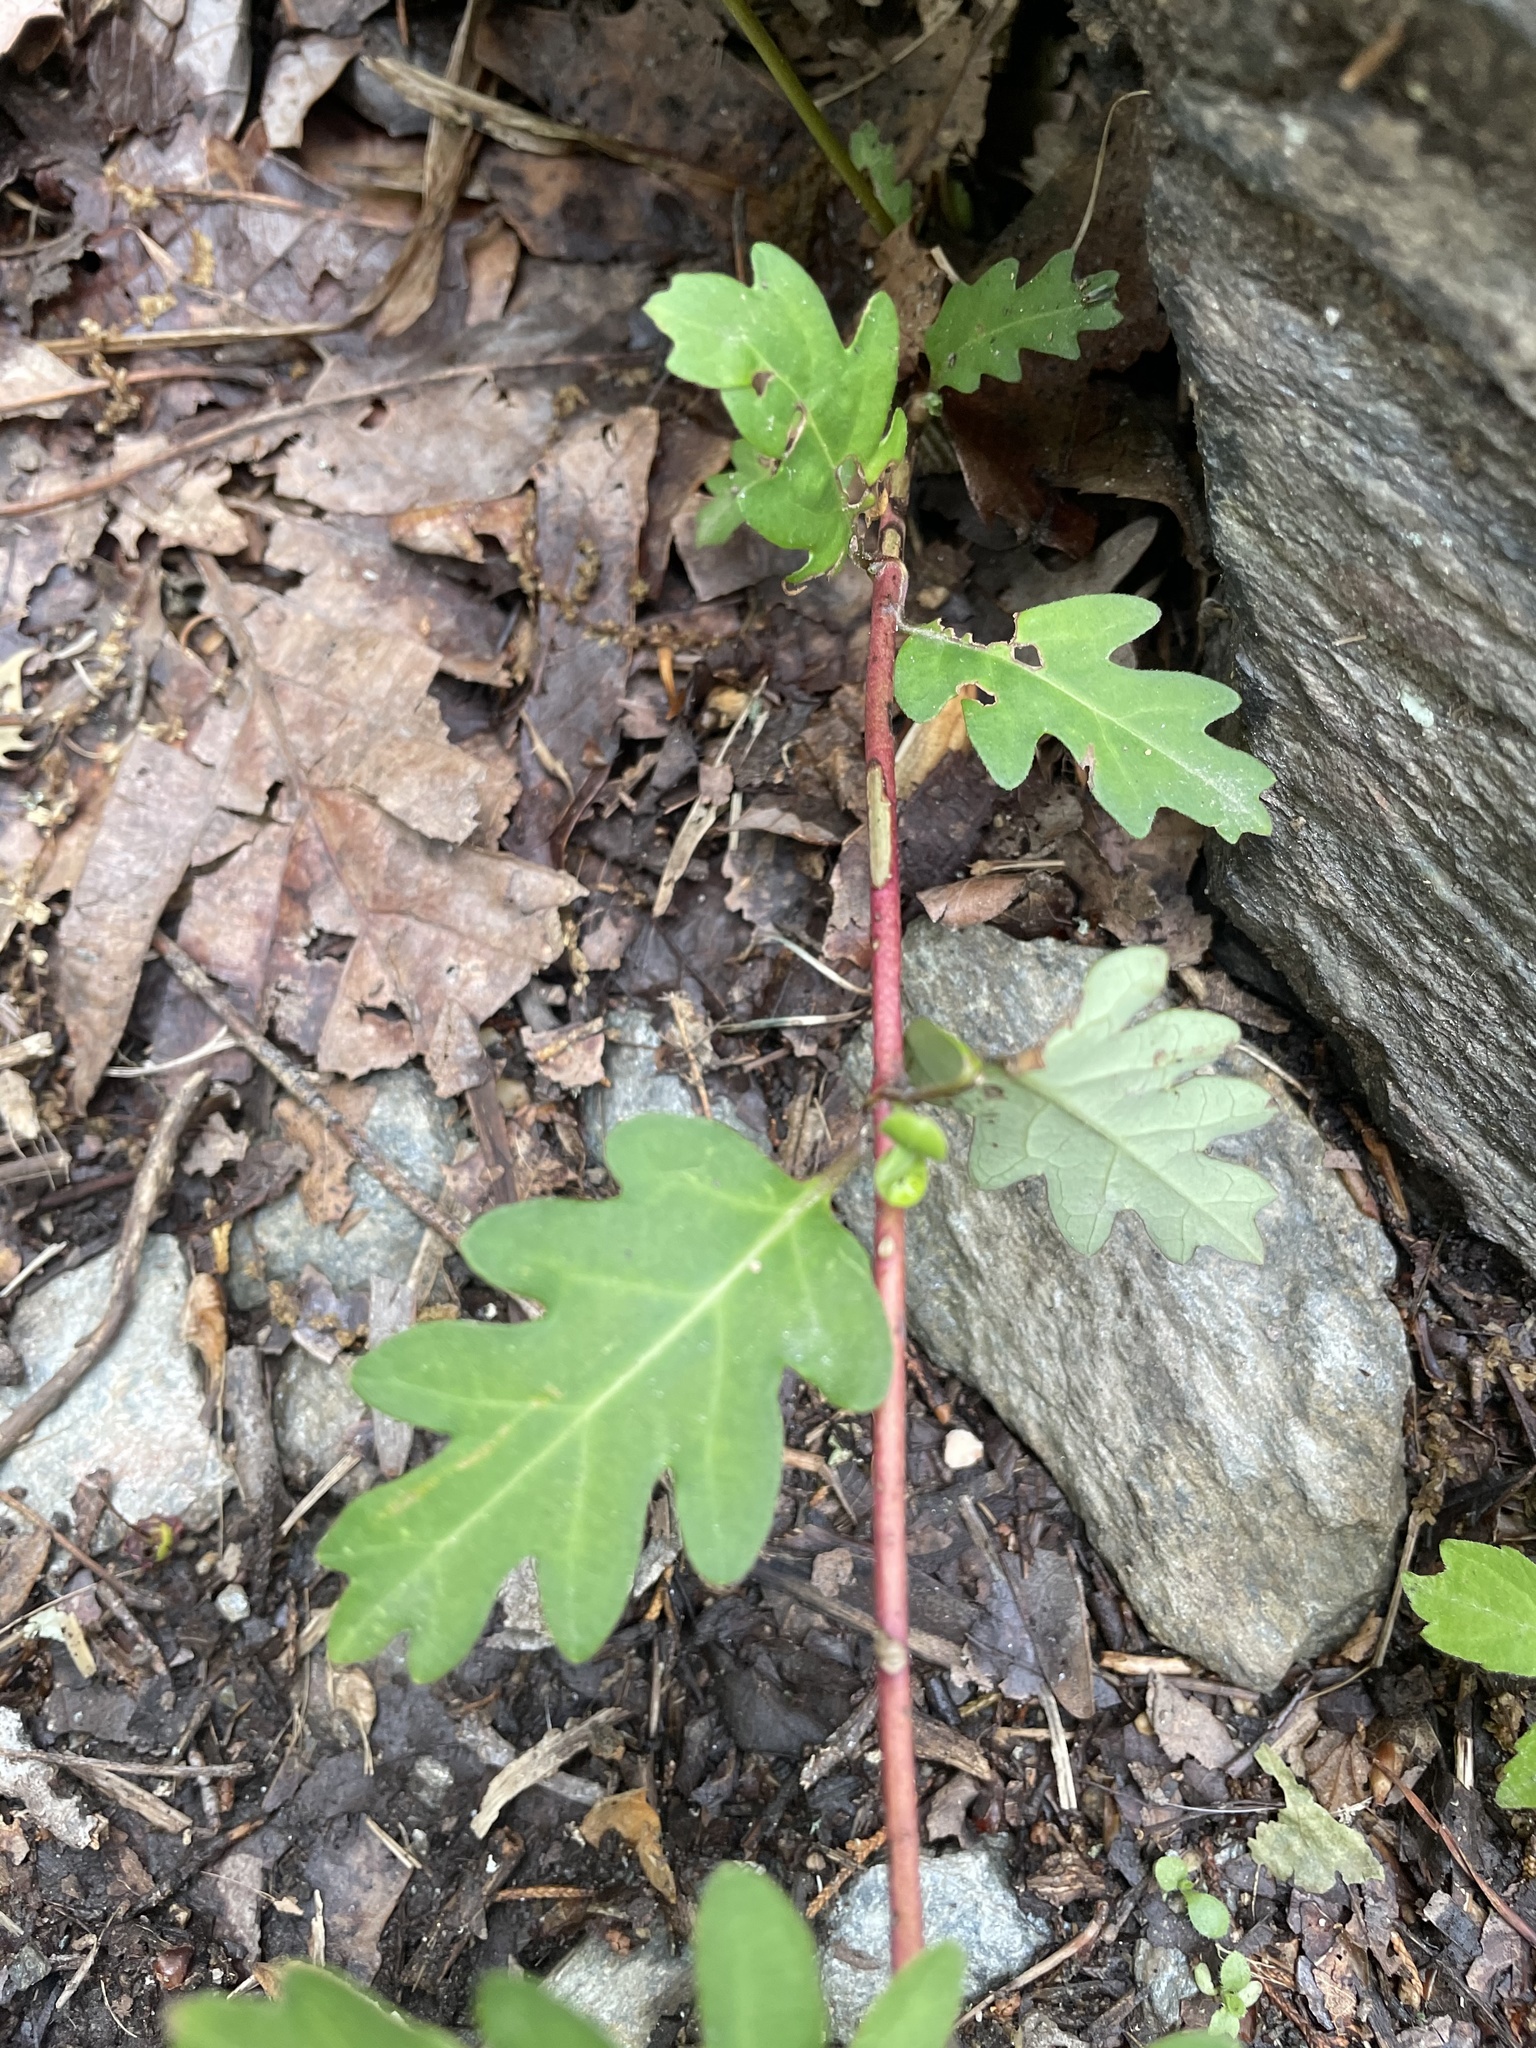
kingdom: Plantae
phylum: Tracheophyta
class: Magnoliopsida
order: Dipsacales
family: Caprifoliaceae
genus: Lonicera
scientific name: Lonicera japonica
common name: Japanese honeysuckle
